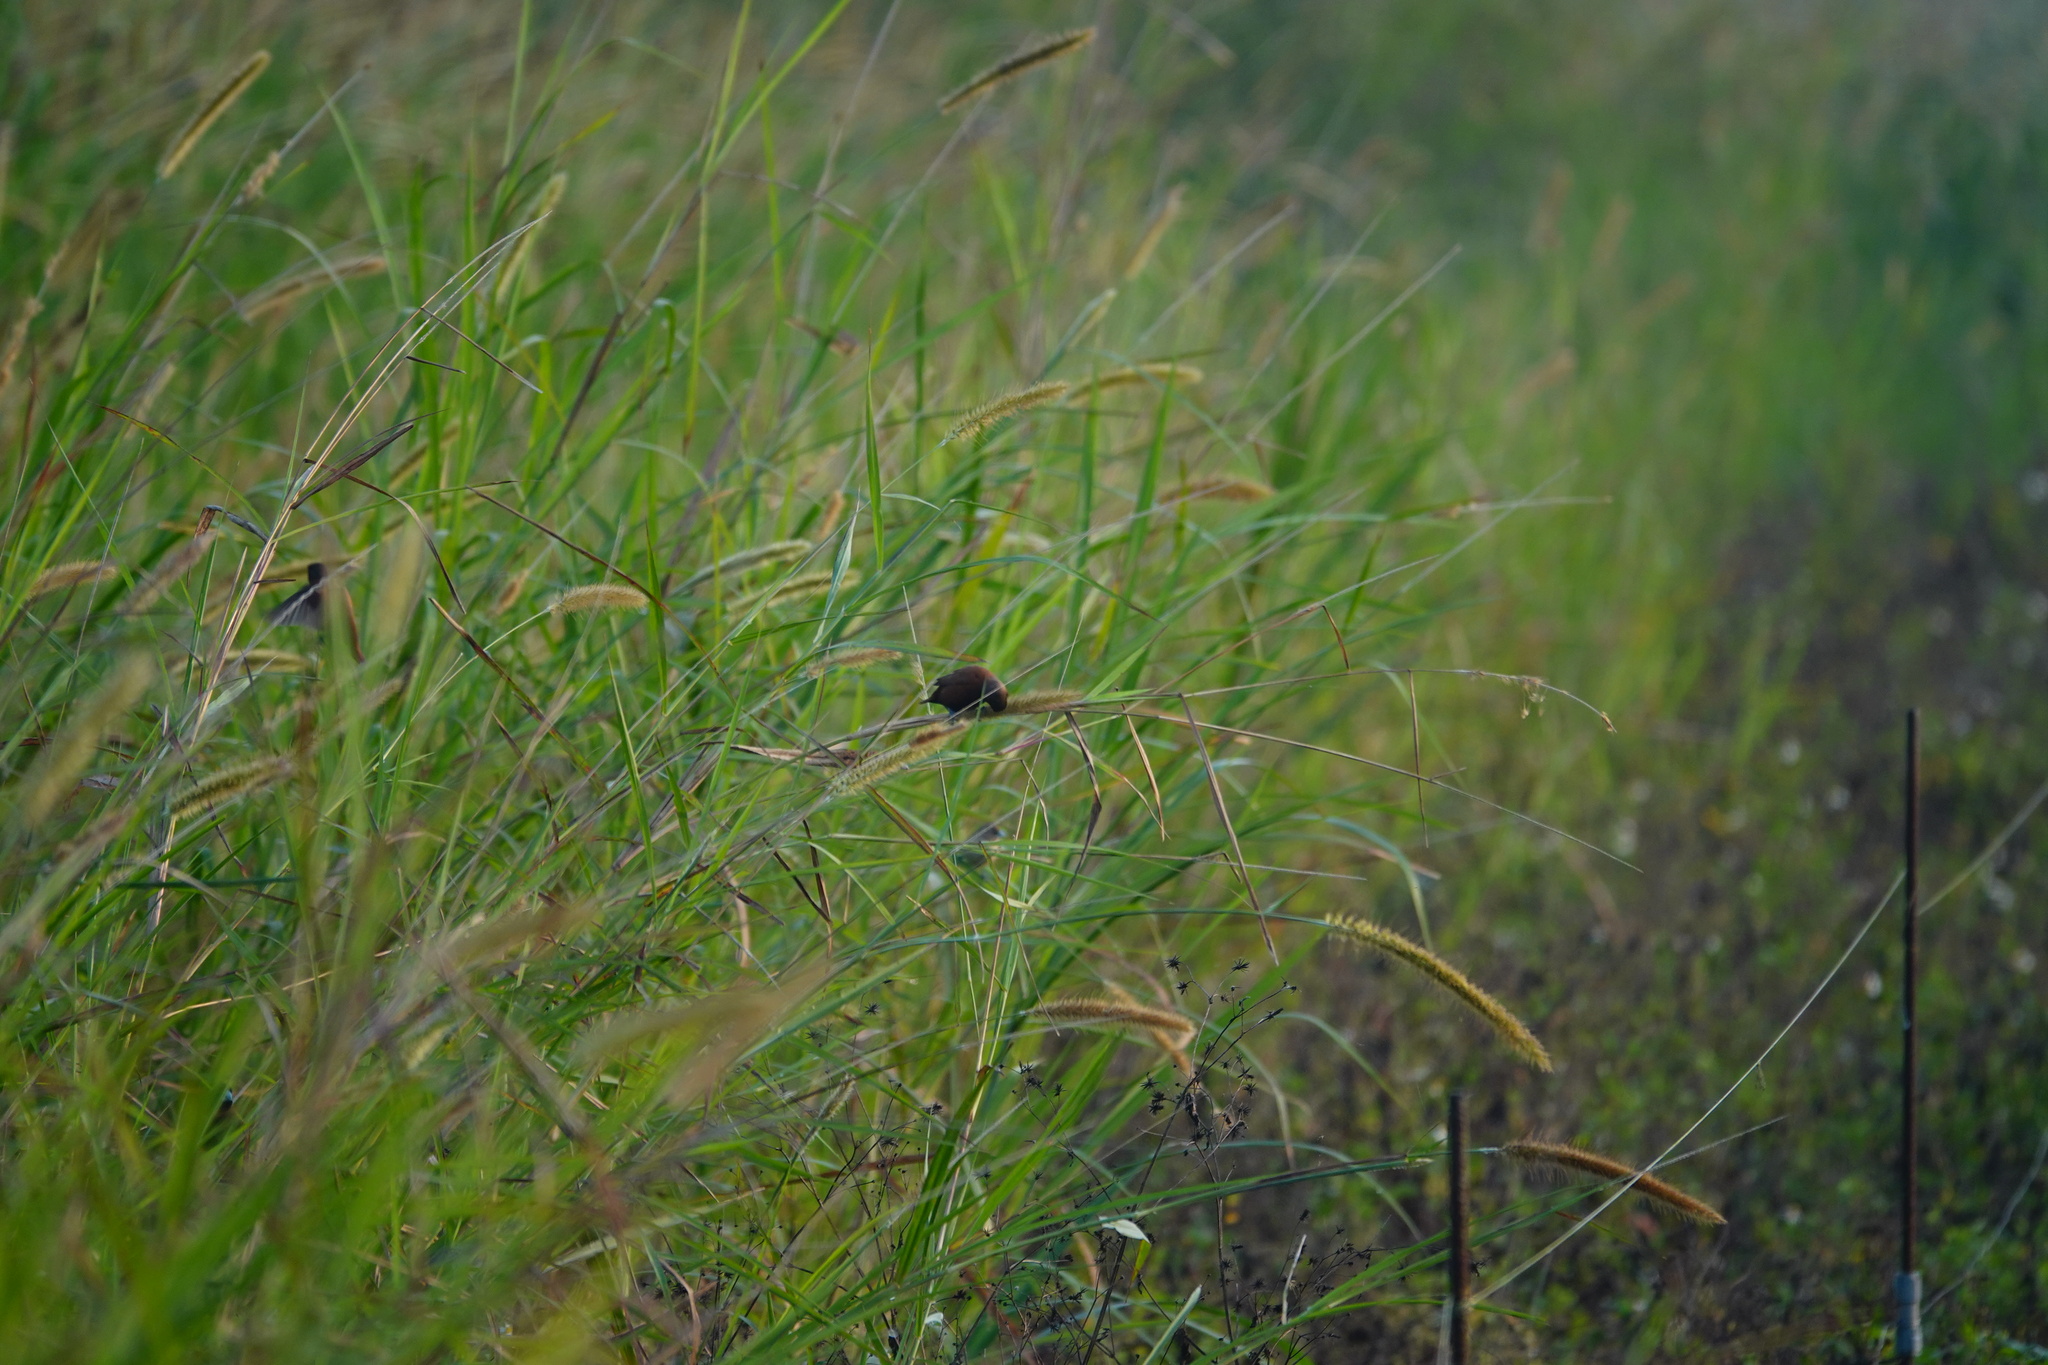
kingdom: Animalia
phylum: Chordata
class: Aves
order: Passeriformes
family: Estrildidae
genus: Lonchura
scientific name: Lonchura atricapilla
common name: Chestnut munia
